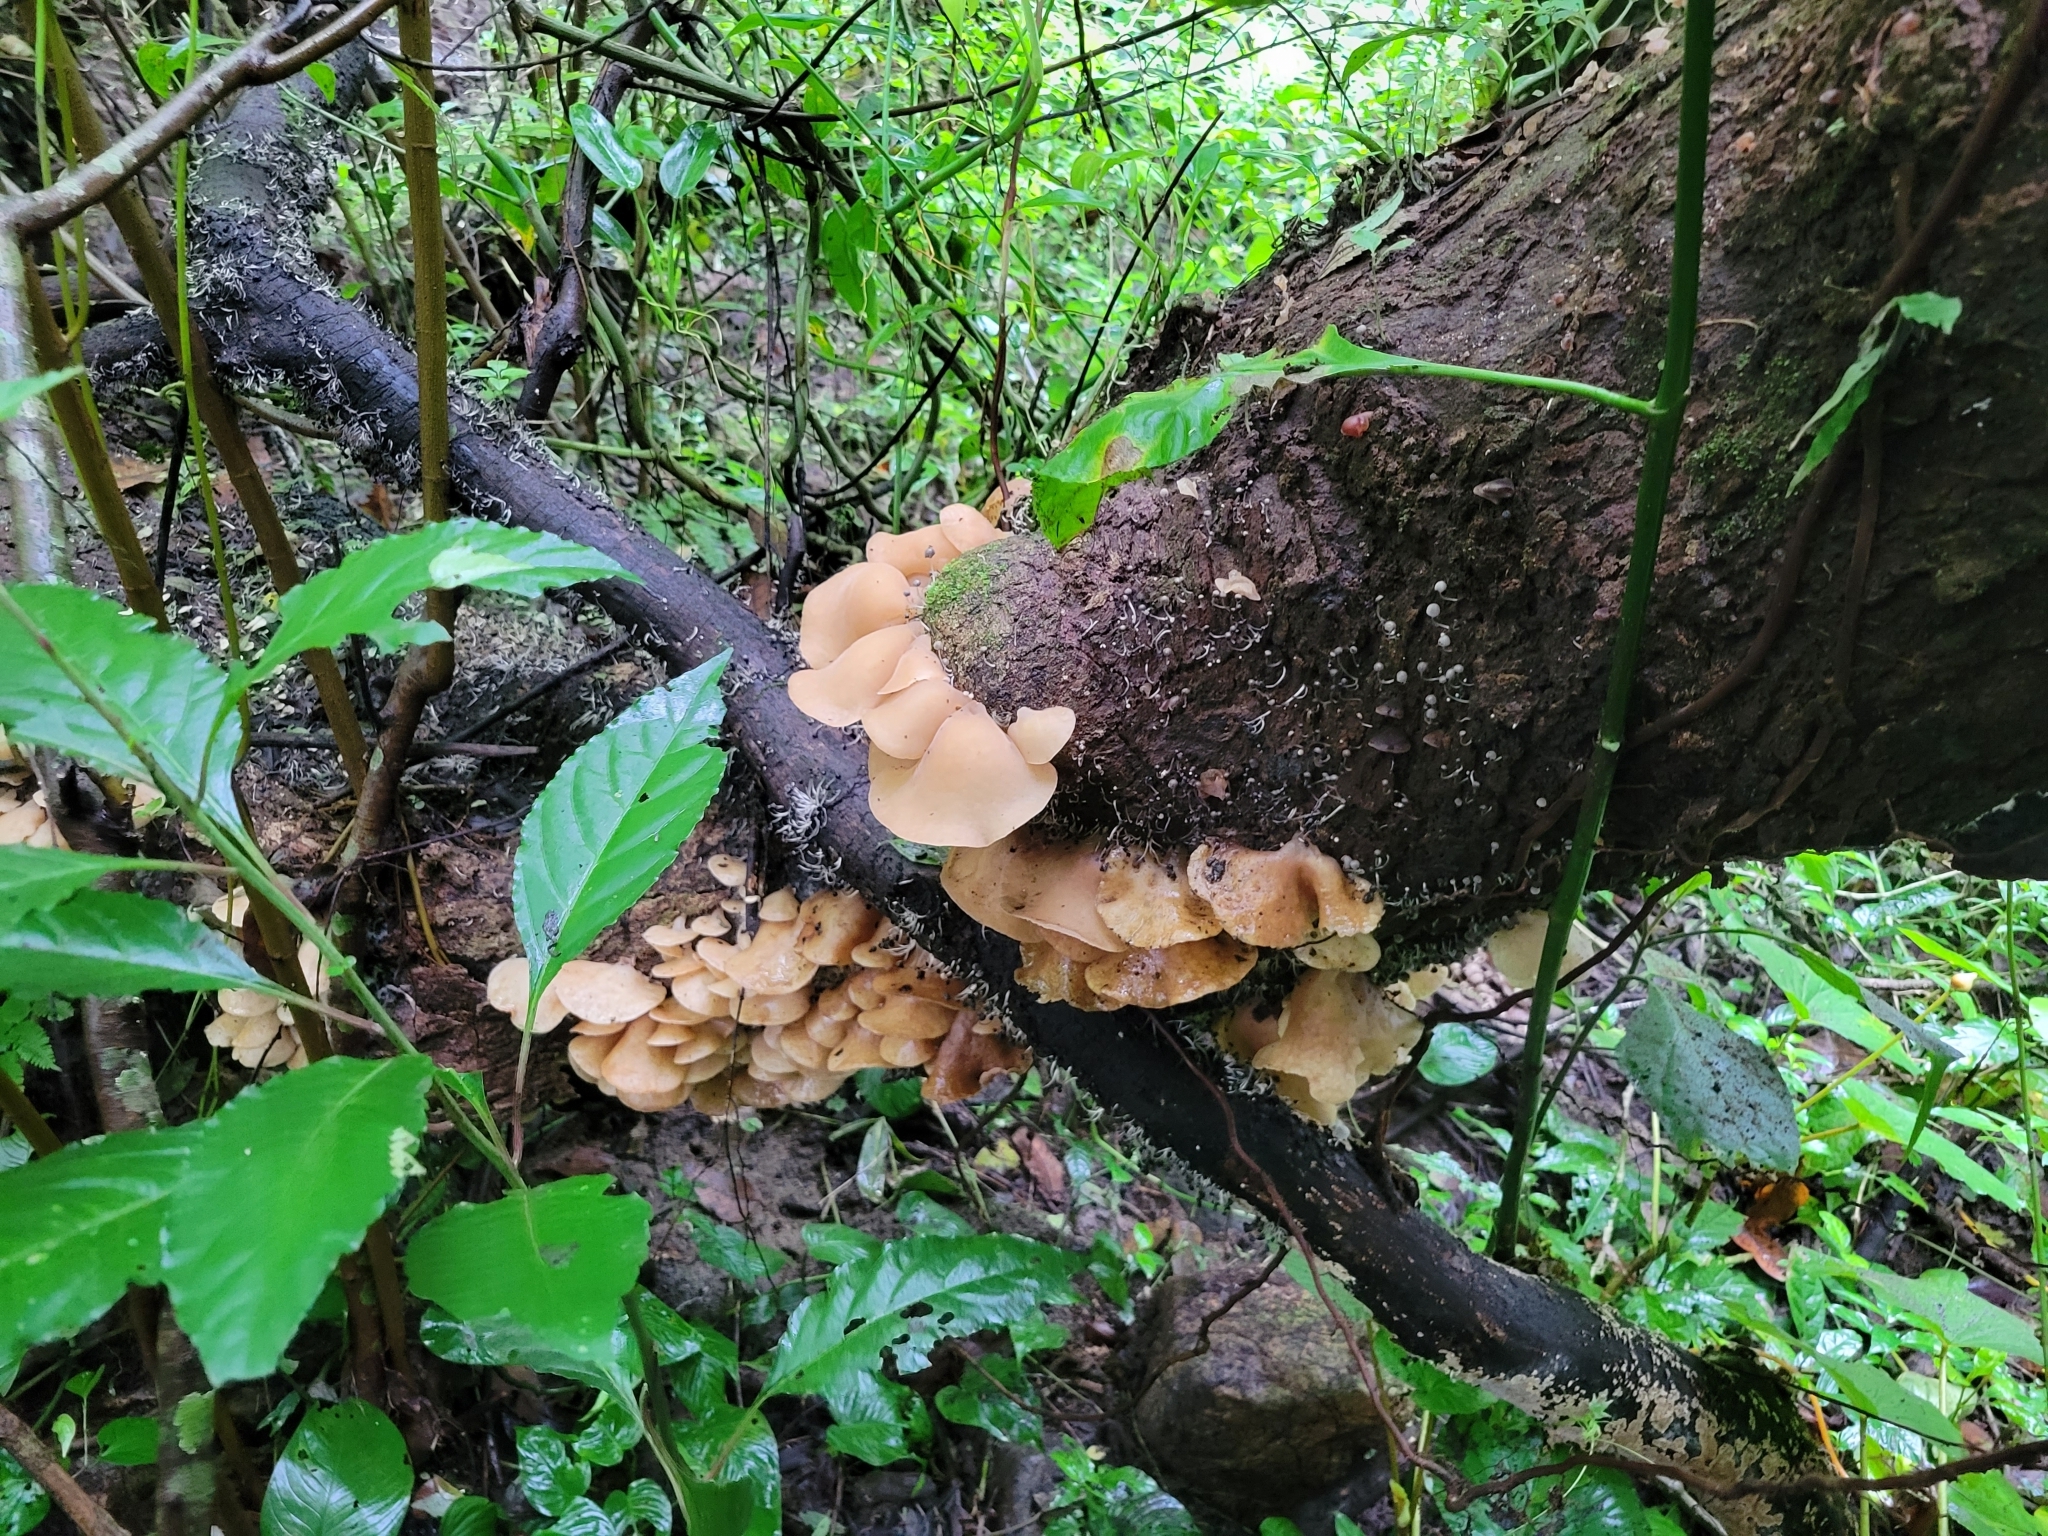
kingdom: Fungi
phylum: Basidiomycota
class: Agaricomycetes
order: Auriculariales
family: Auriculariaceae
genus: Auricularia
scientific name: Auricularia delicata
